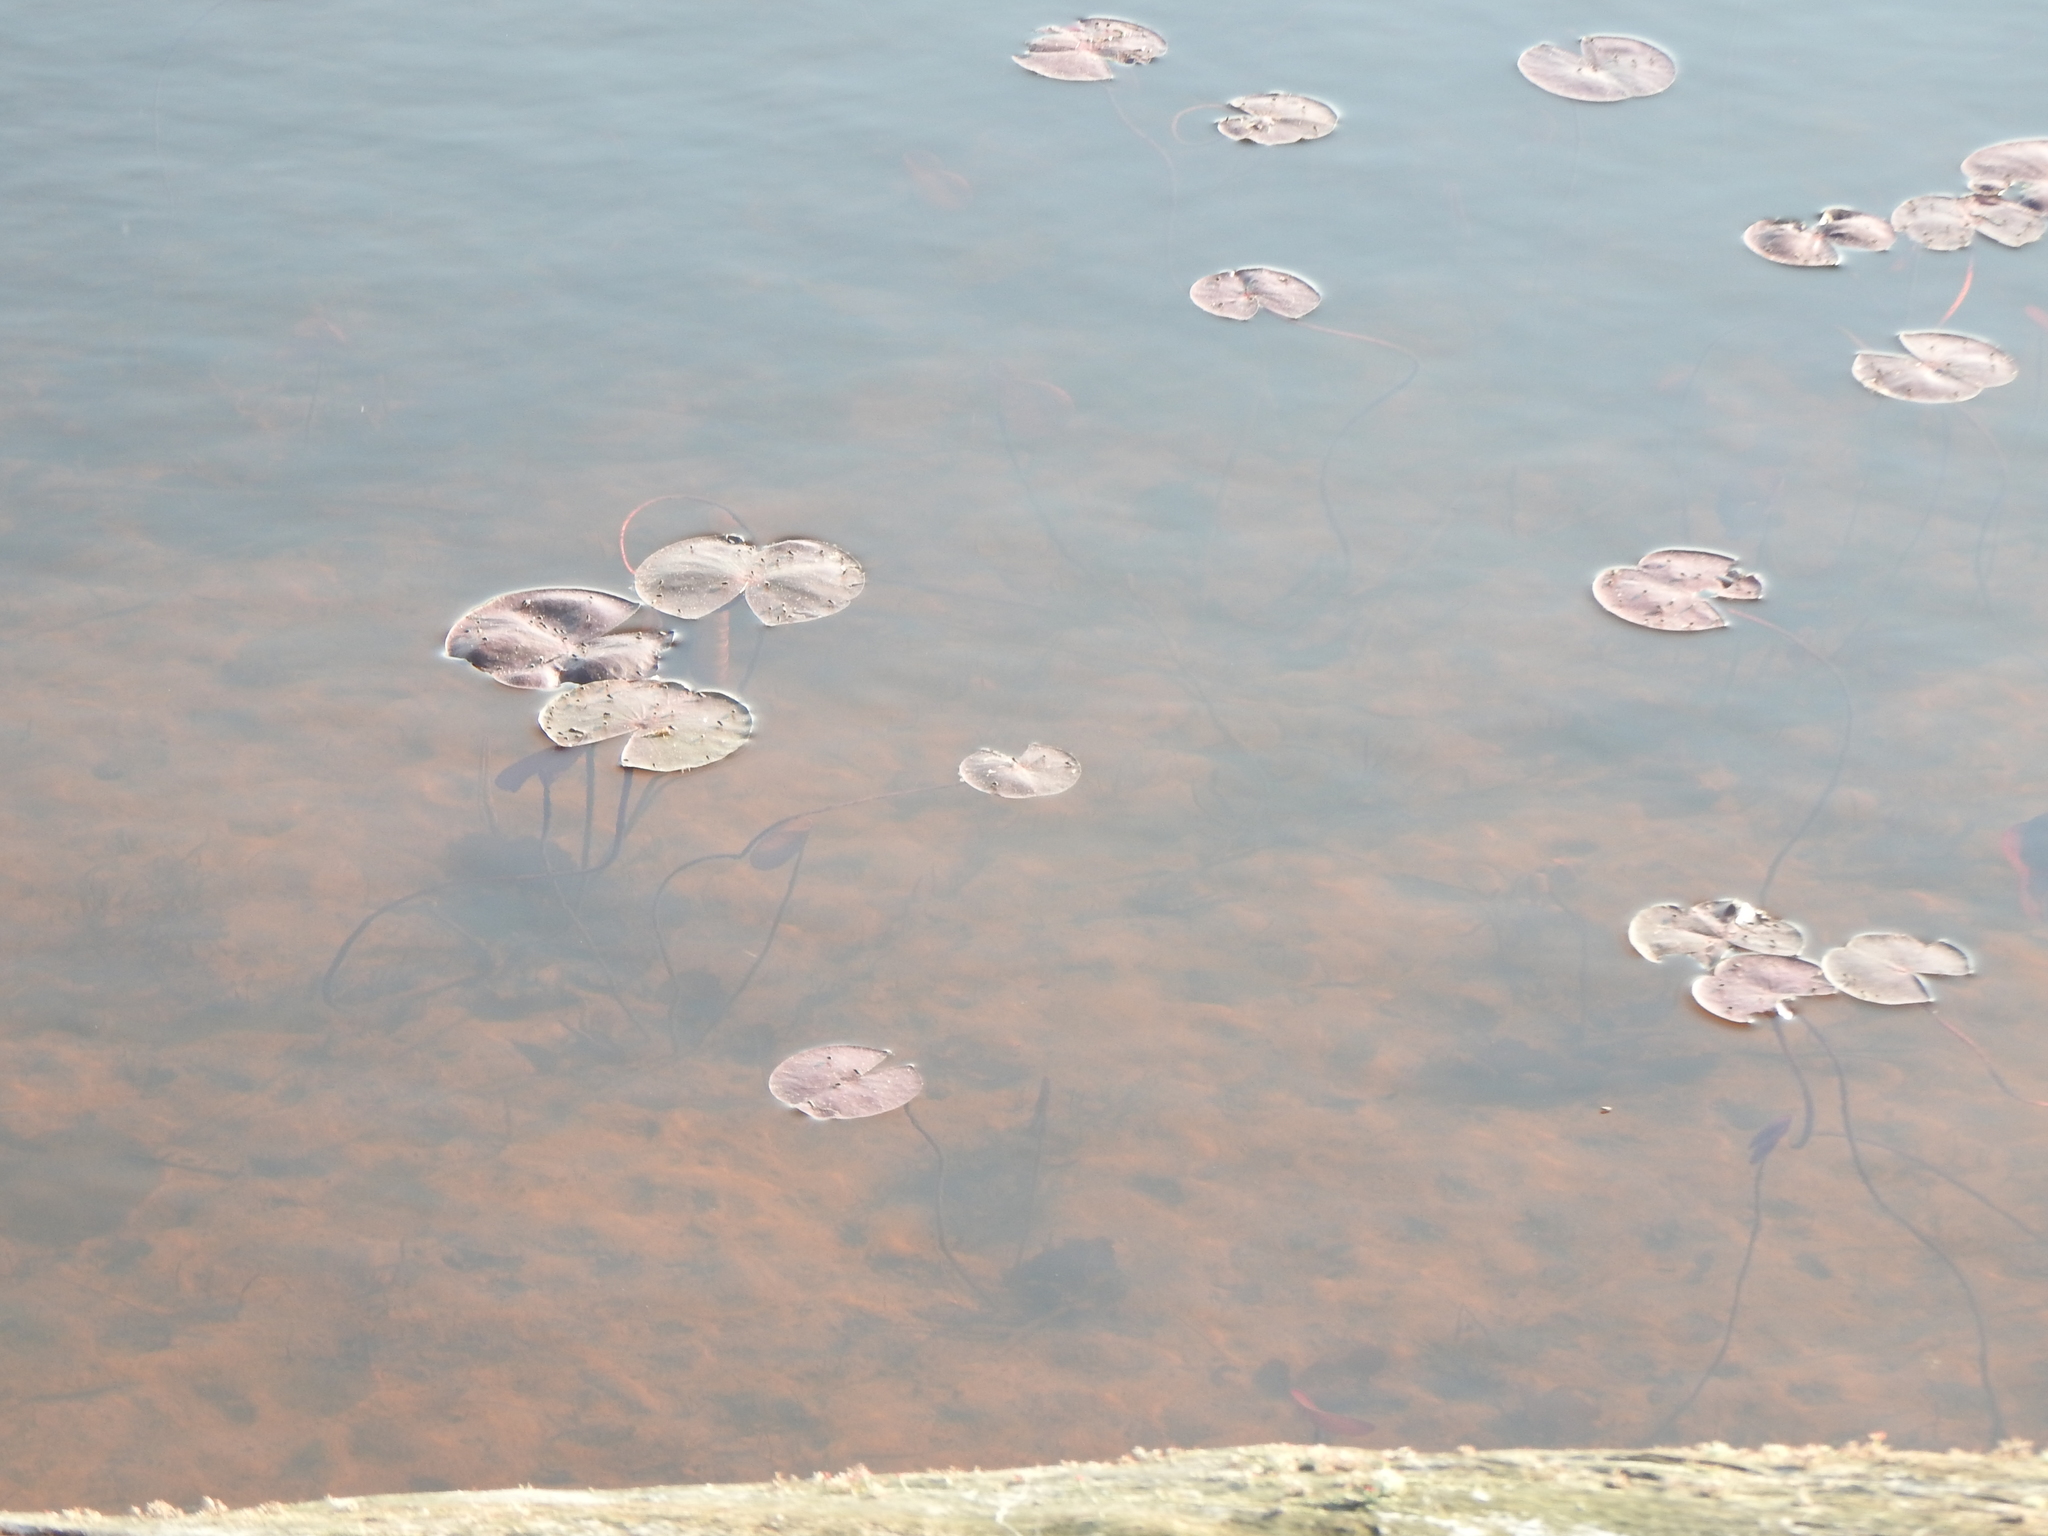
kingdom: Plantae
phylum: Tracheophyta
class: Magnoliopsida
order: Nymphaeales
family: Nymphaeaceae
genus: Nymphaea
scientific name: Nymphaea odorata
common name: Fragrant water-lily
